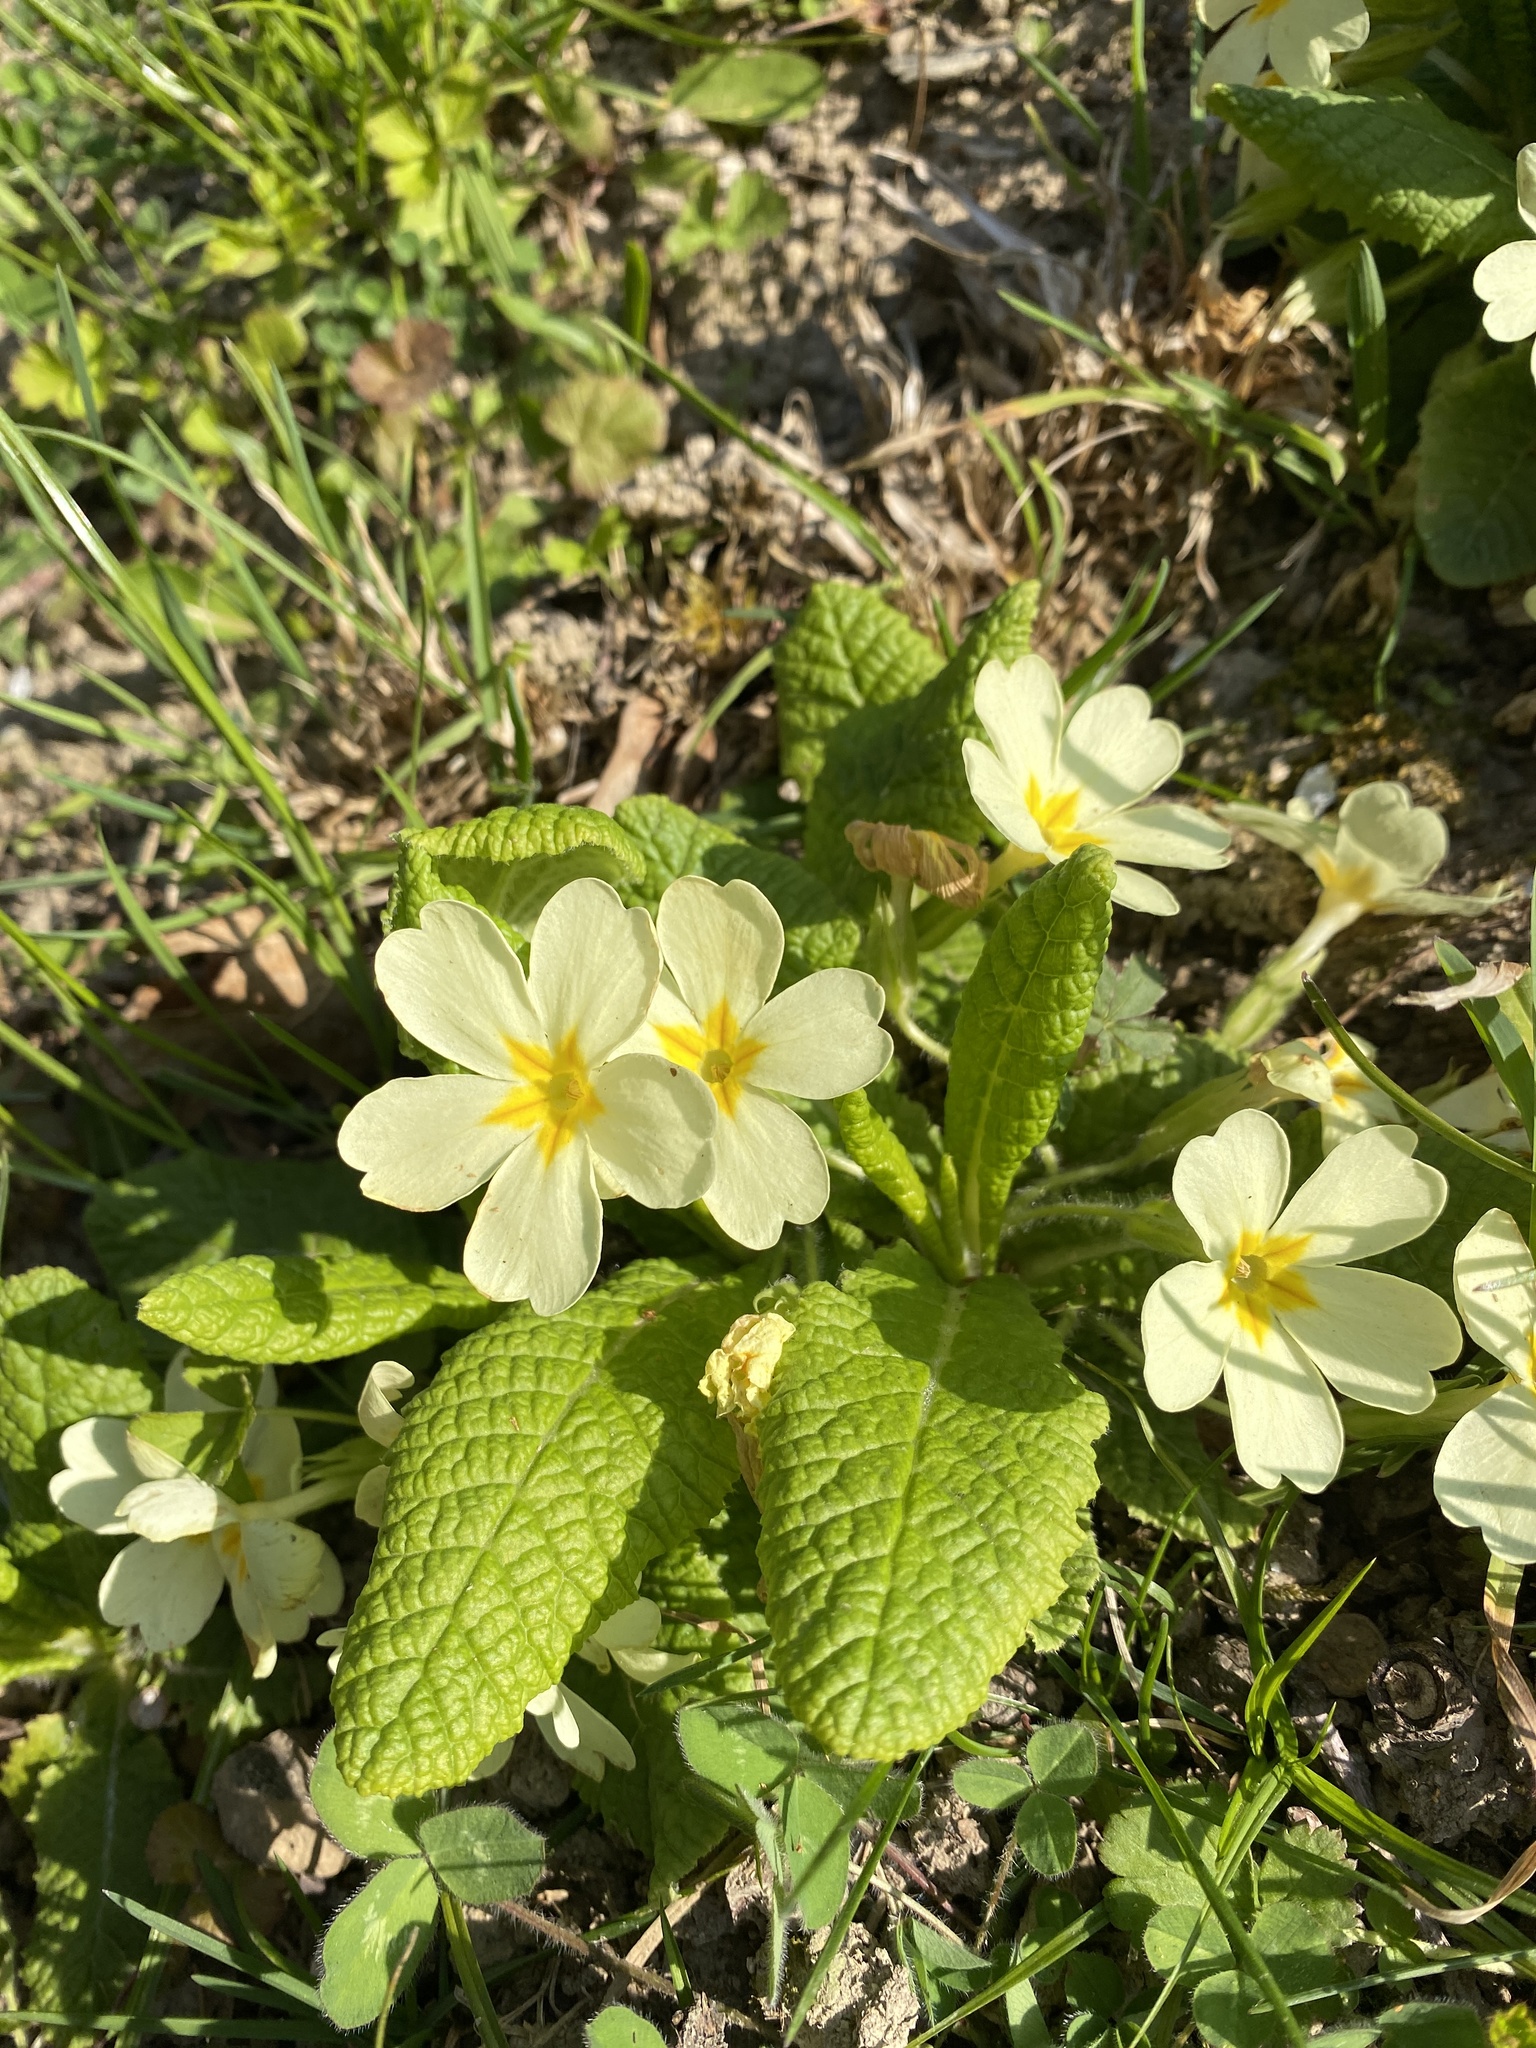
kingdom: Plantae
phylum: Tracheophyta
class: Magnoliopsida
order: Ericales
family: Primulaceae
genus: Primula
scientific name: Primula vulgaris
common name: Primrose
